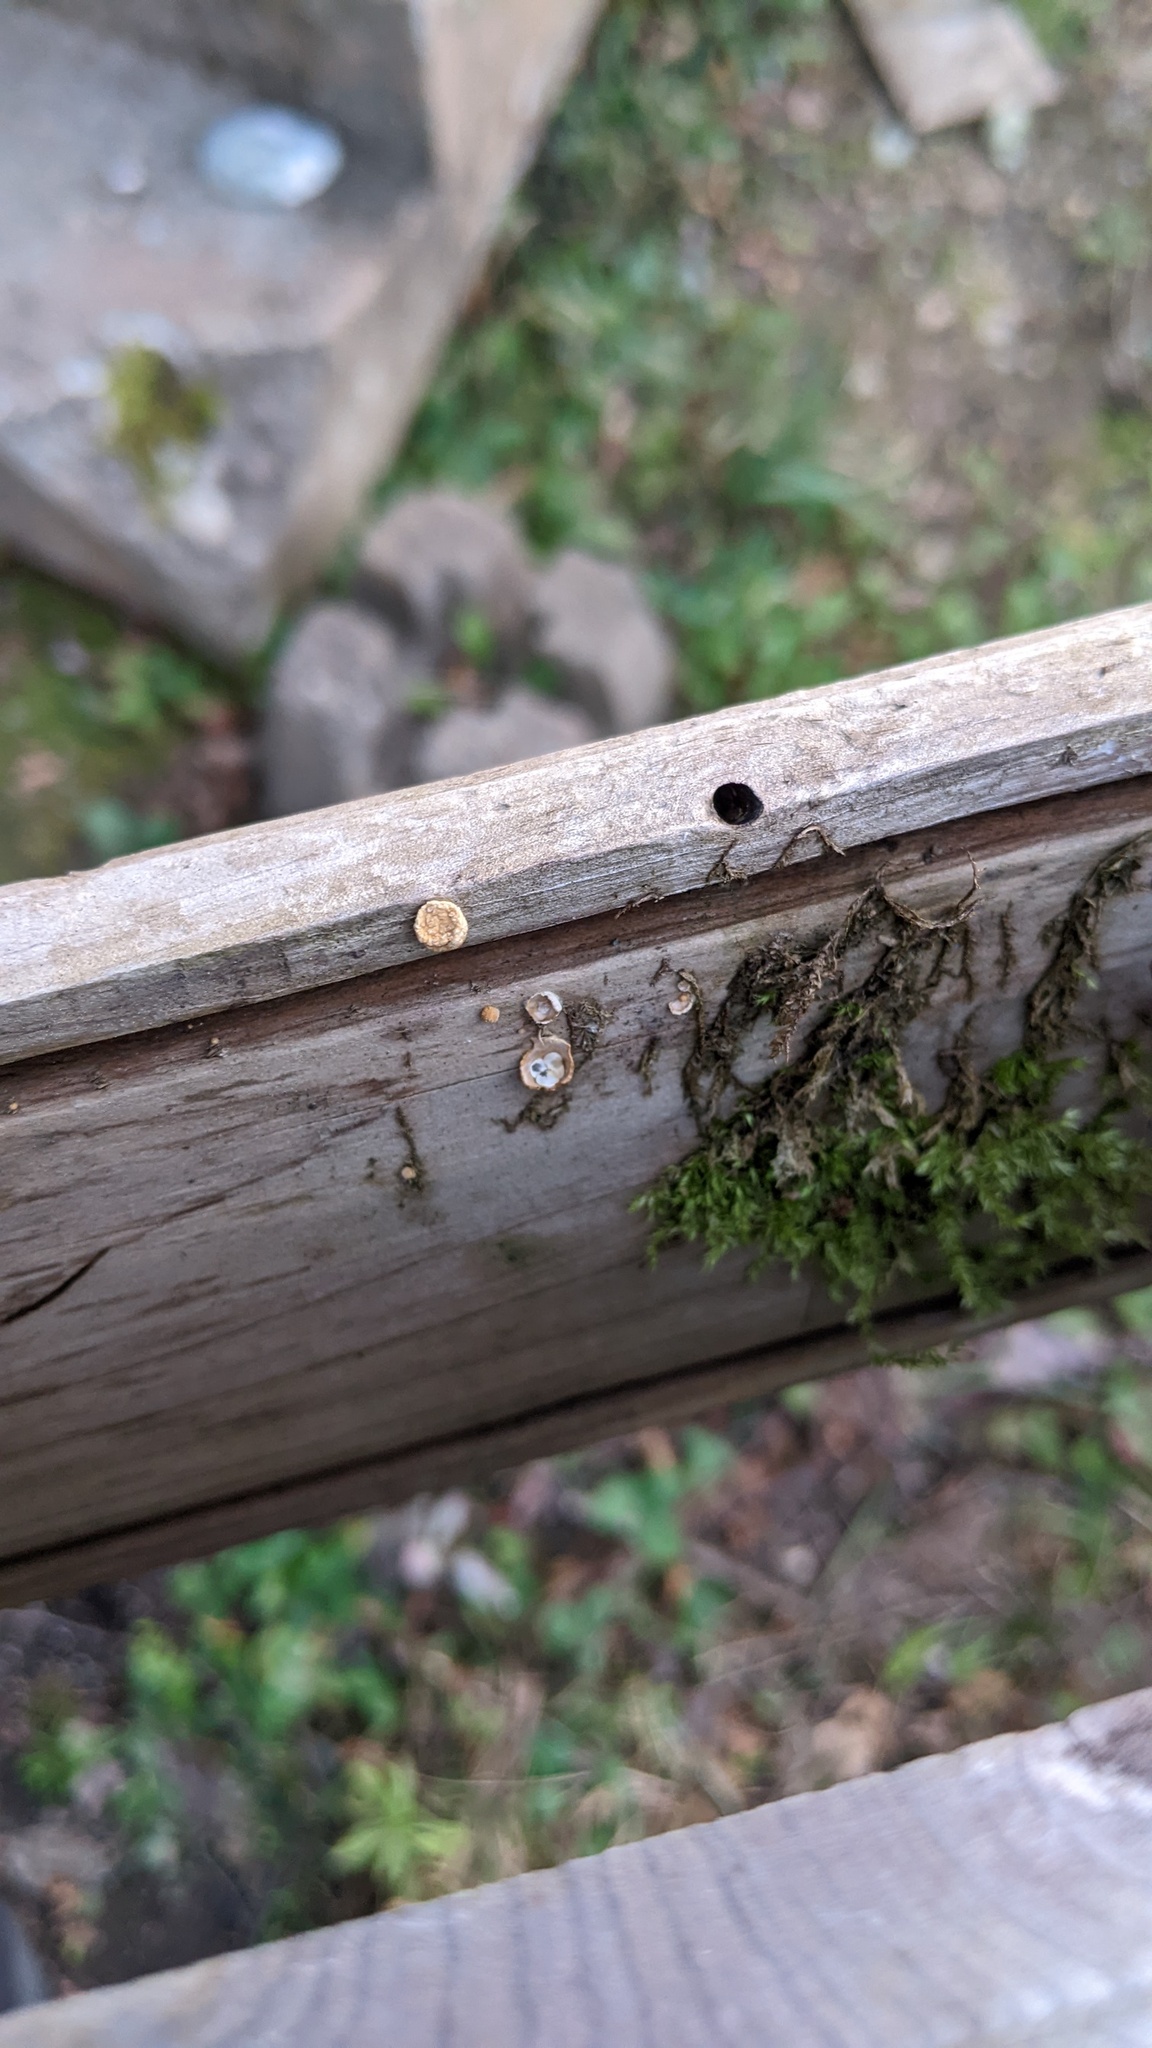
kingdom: Fungi
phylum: Basidiomycota
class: Agaricomycetes
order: Agaricales
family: Nidulariaceae
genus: Crucibulum
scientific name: Crucibulum laeve
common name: Common bird's nest
